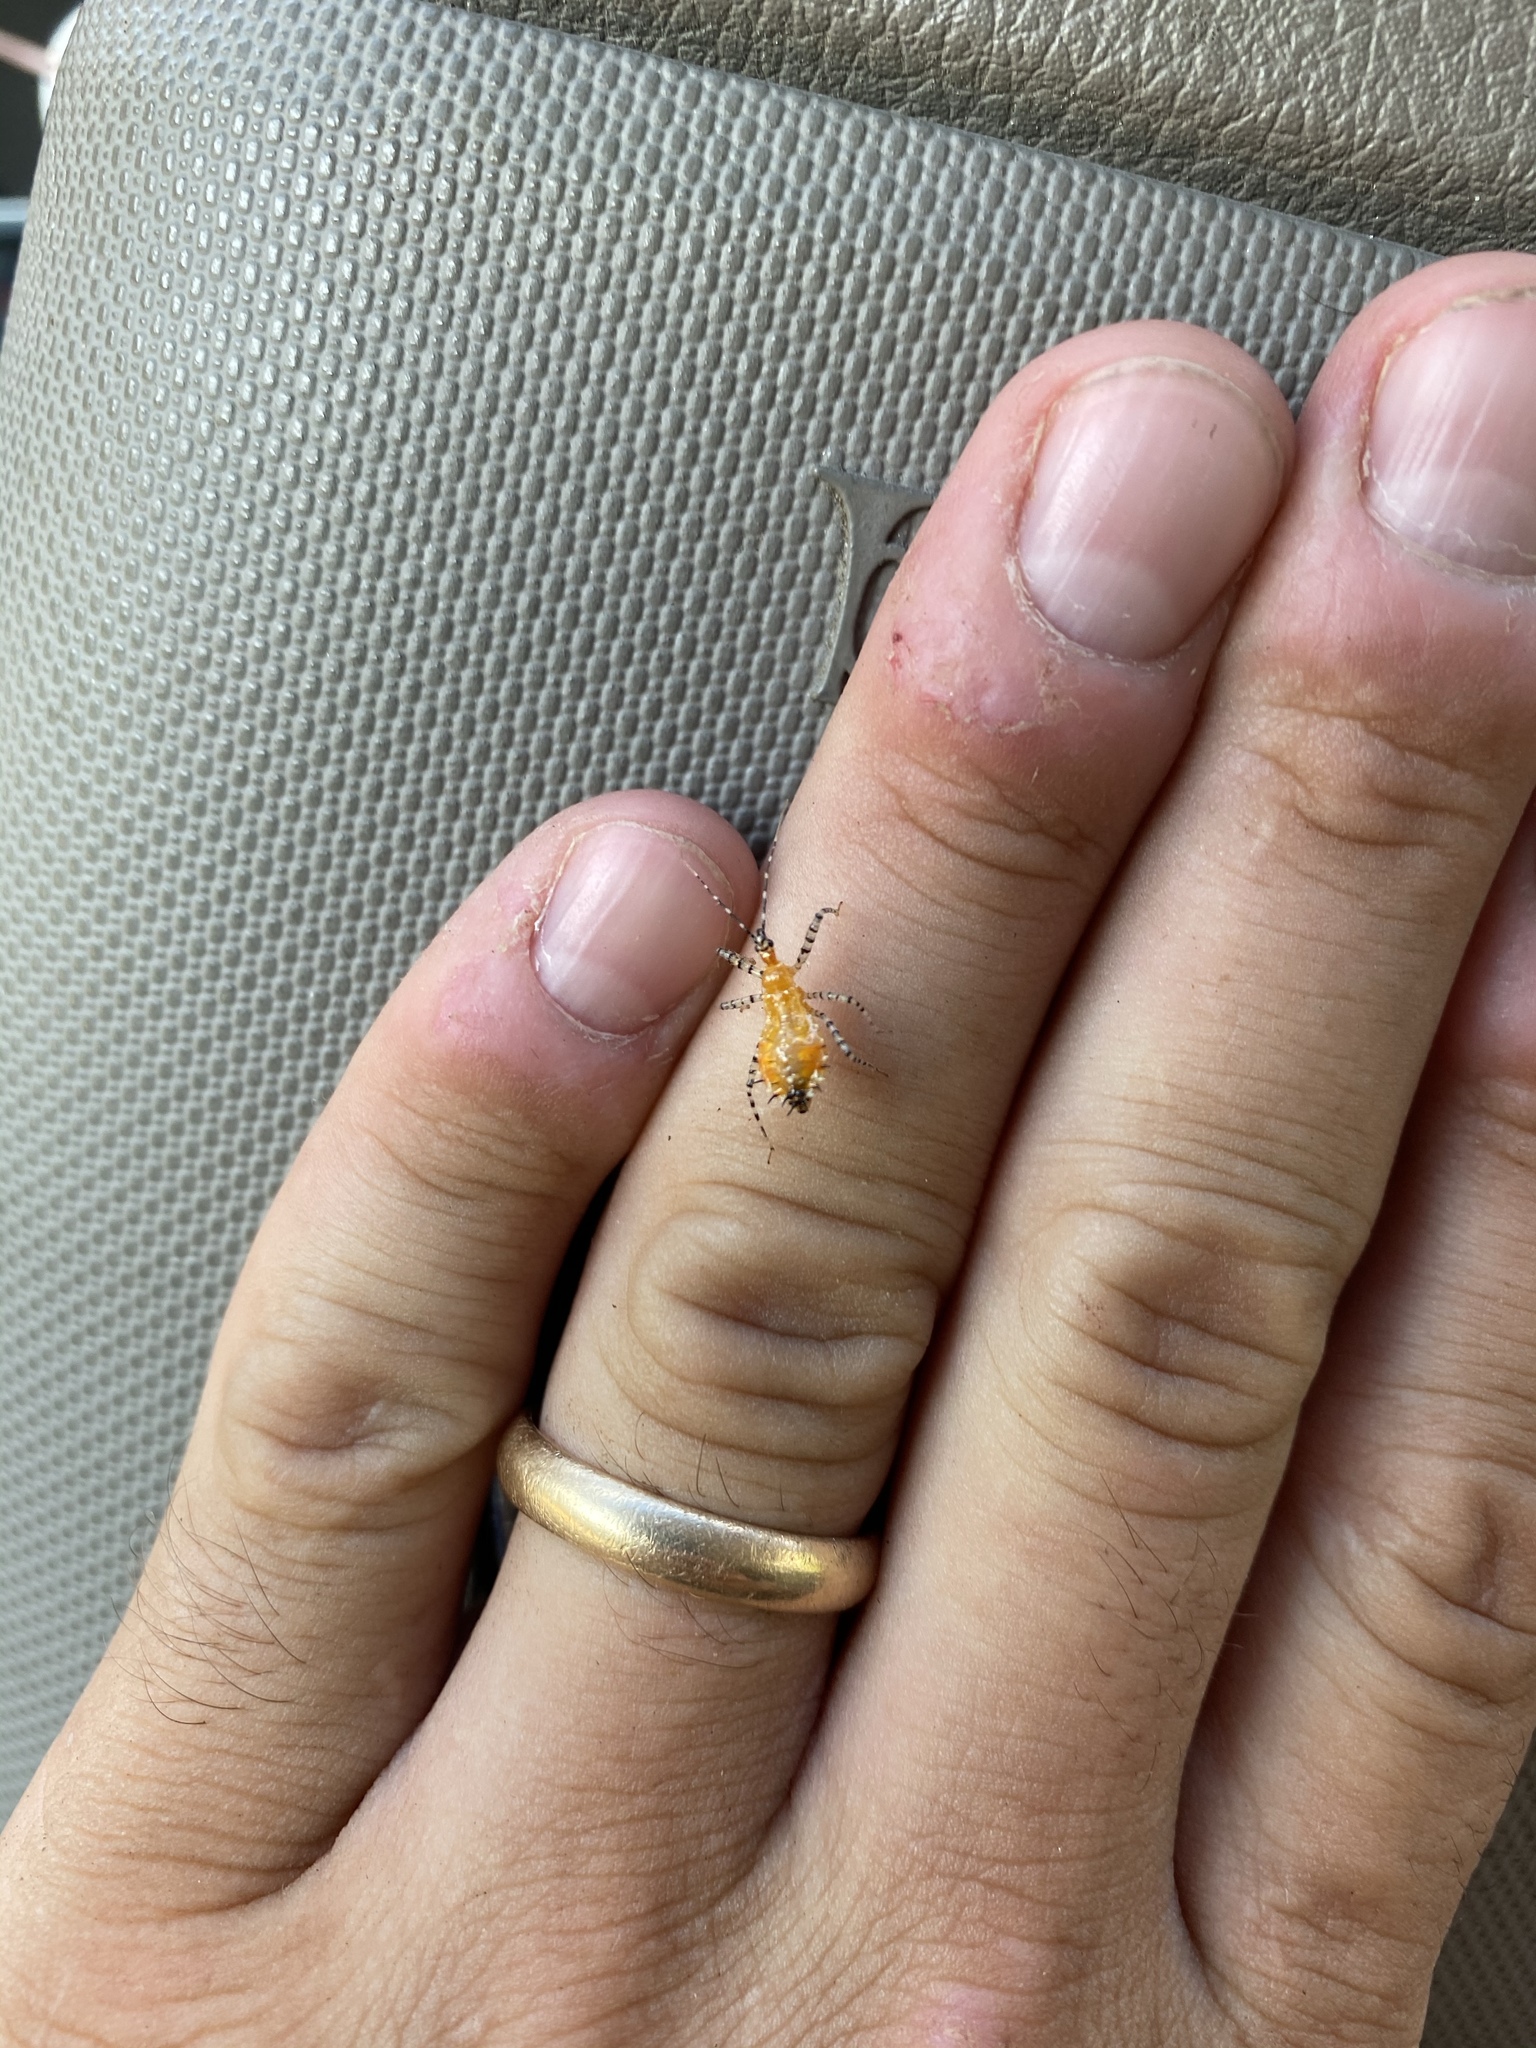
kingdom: Animalia
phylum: Arthropoda
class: Insecta
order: Hemiptera
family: Reduviidae
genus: Pselliopus
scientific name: Pselliopus cinctus
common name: Ringed assassin bug
